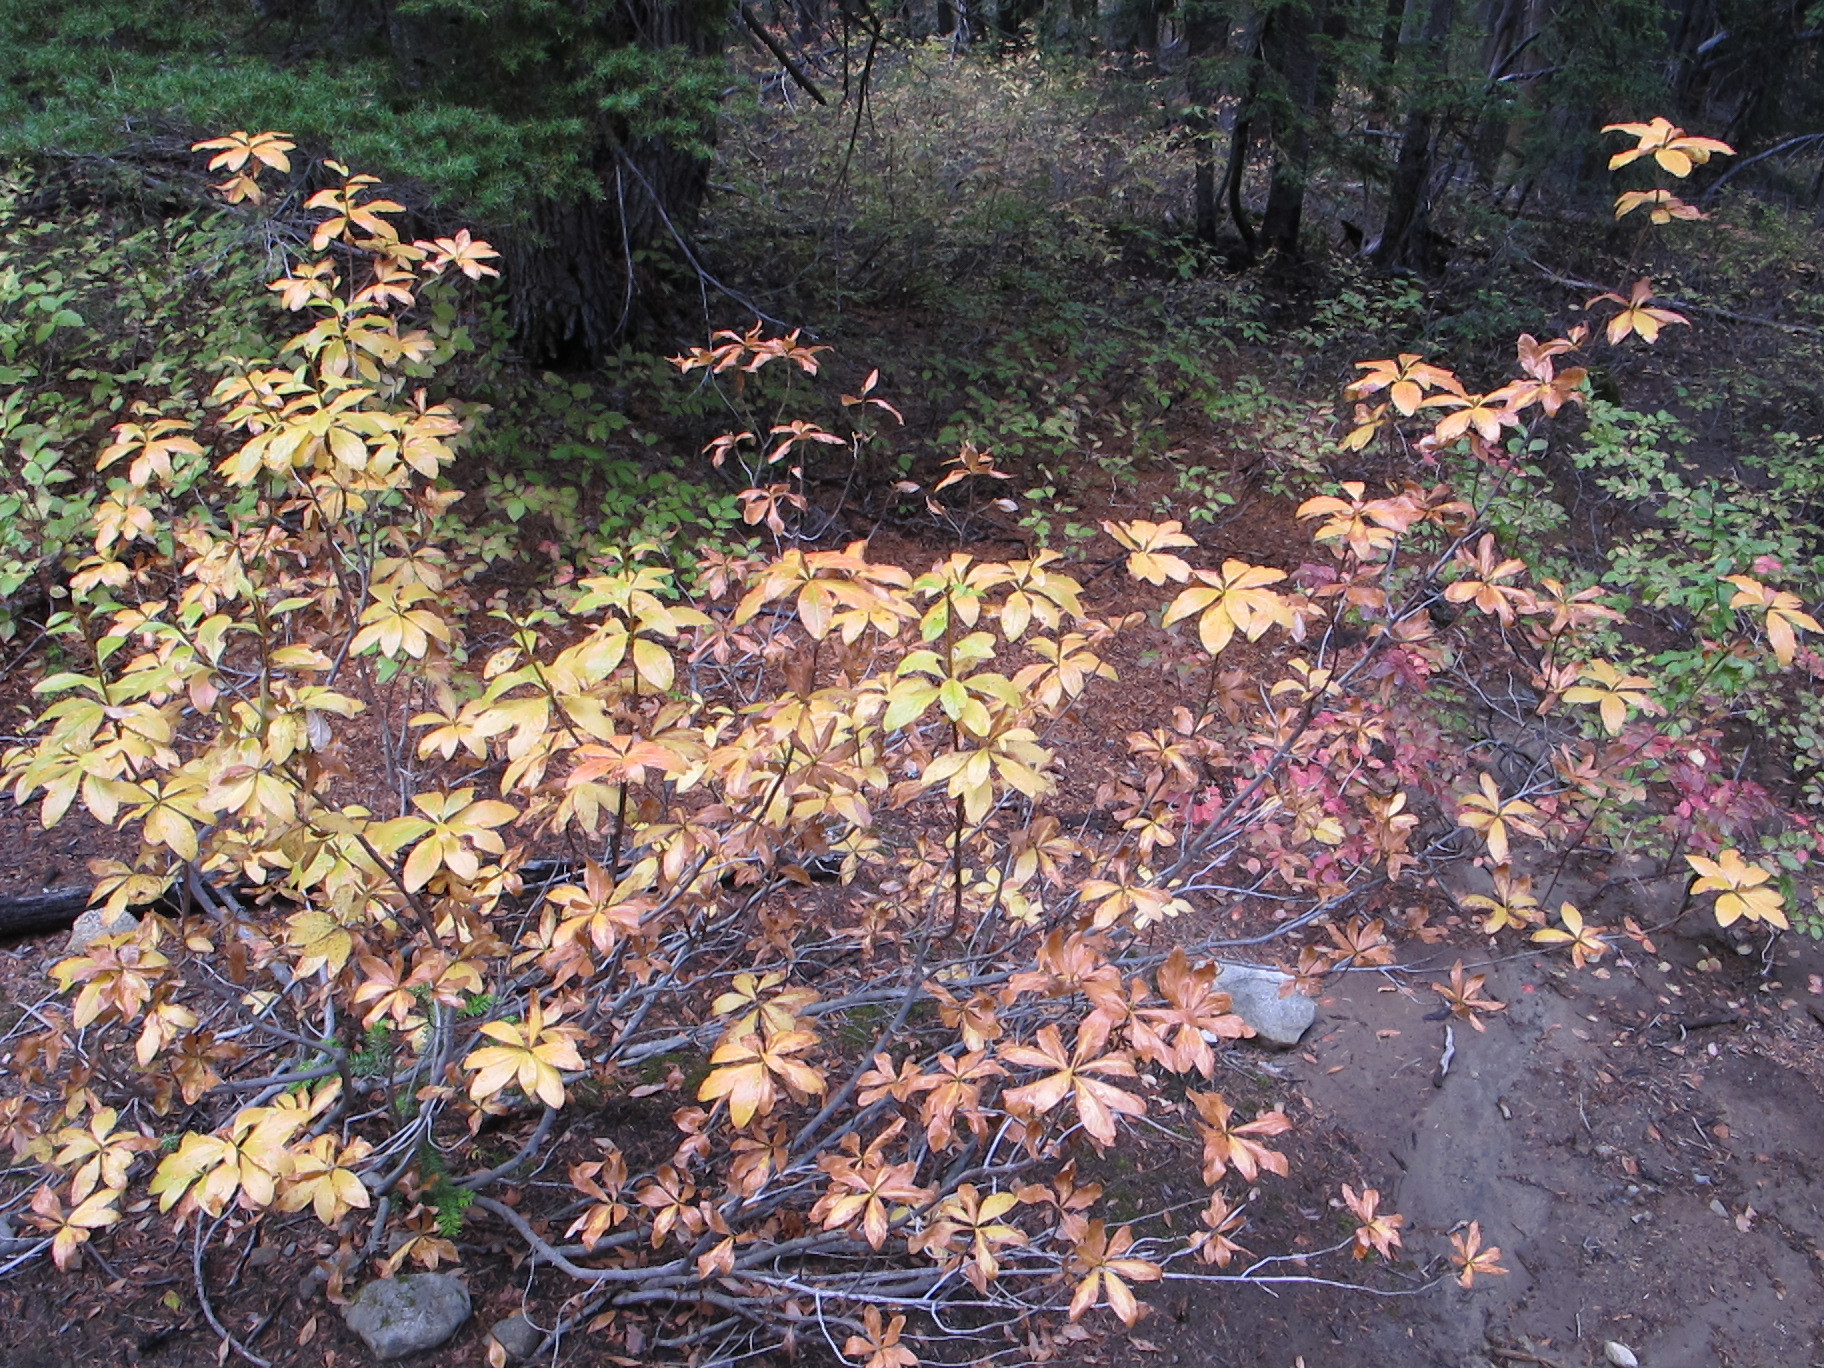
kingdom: Plantae
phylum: Tracheophyta
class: Magnoliopsida
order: Ericales
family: Ericaceae
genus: Rhododendron
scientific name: Rhododendron menziesii
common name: Pacific menziesia
